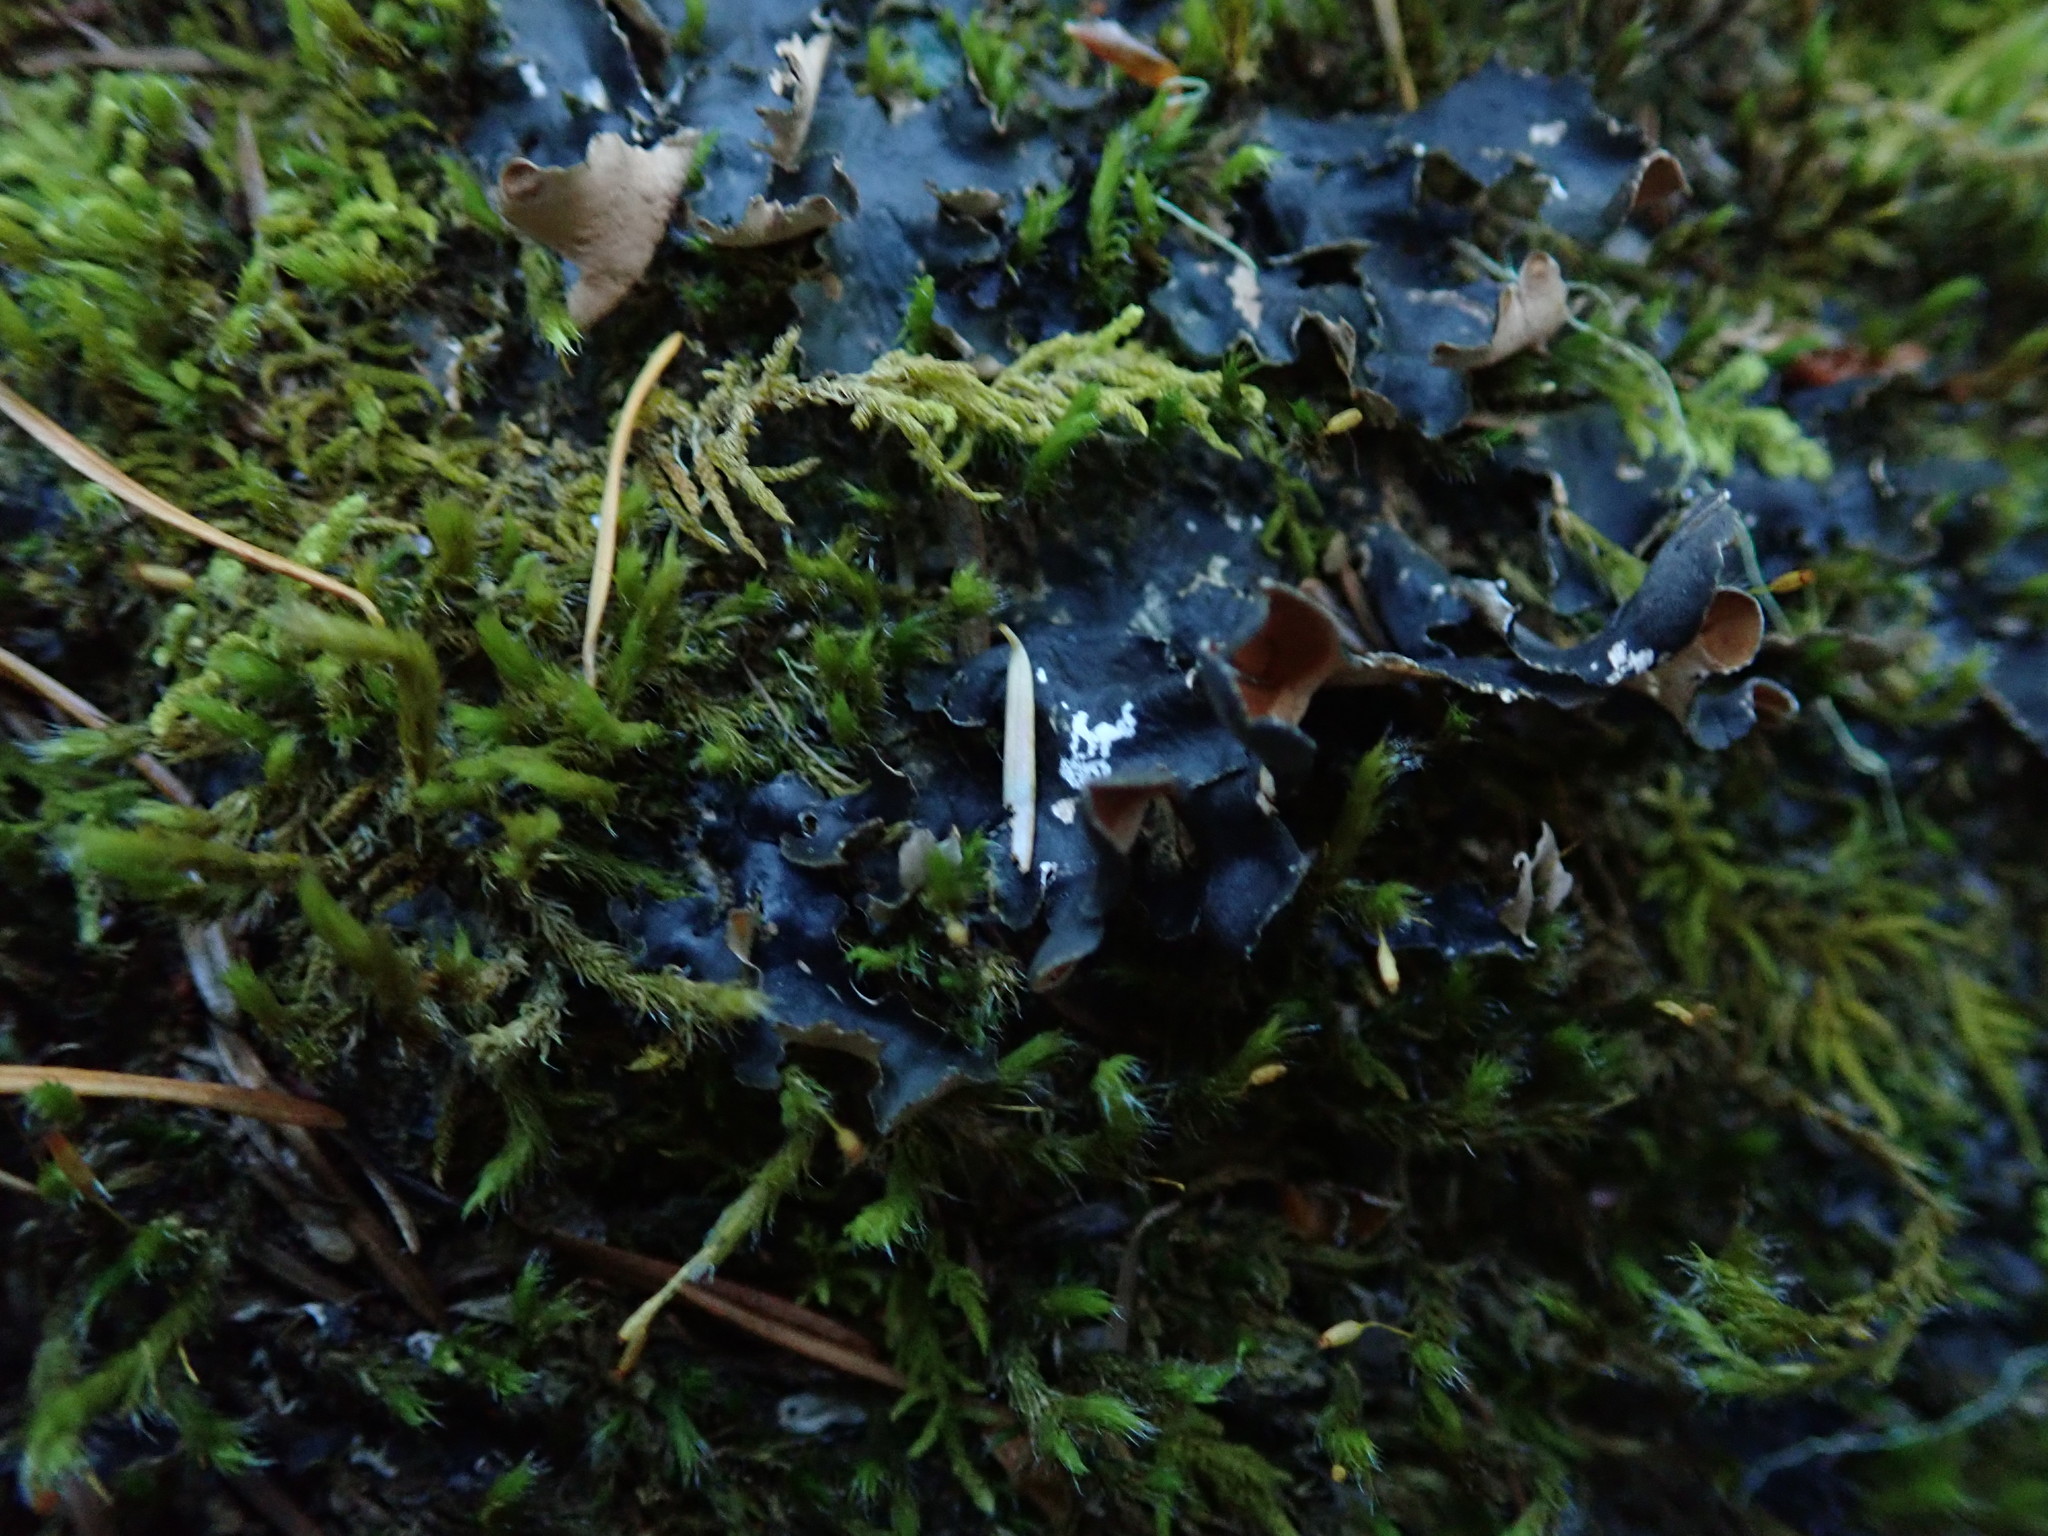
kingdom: Fungi
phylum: Ascomycota
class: Lecanoromycetes
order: Peltigerales
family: Nephromataceae
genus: Nephroma
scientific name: Nephroma bellum
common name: Naked kidney lichen
